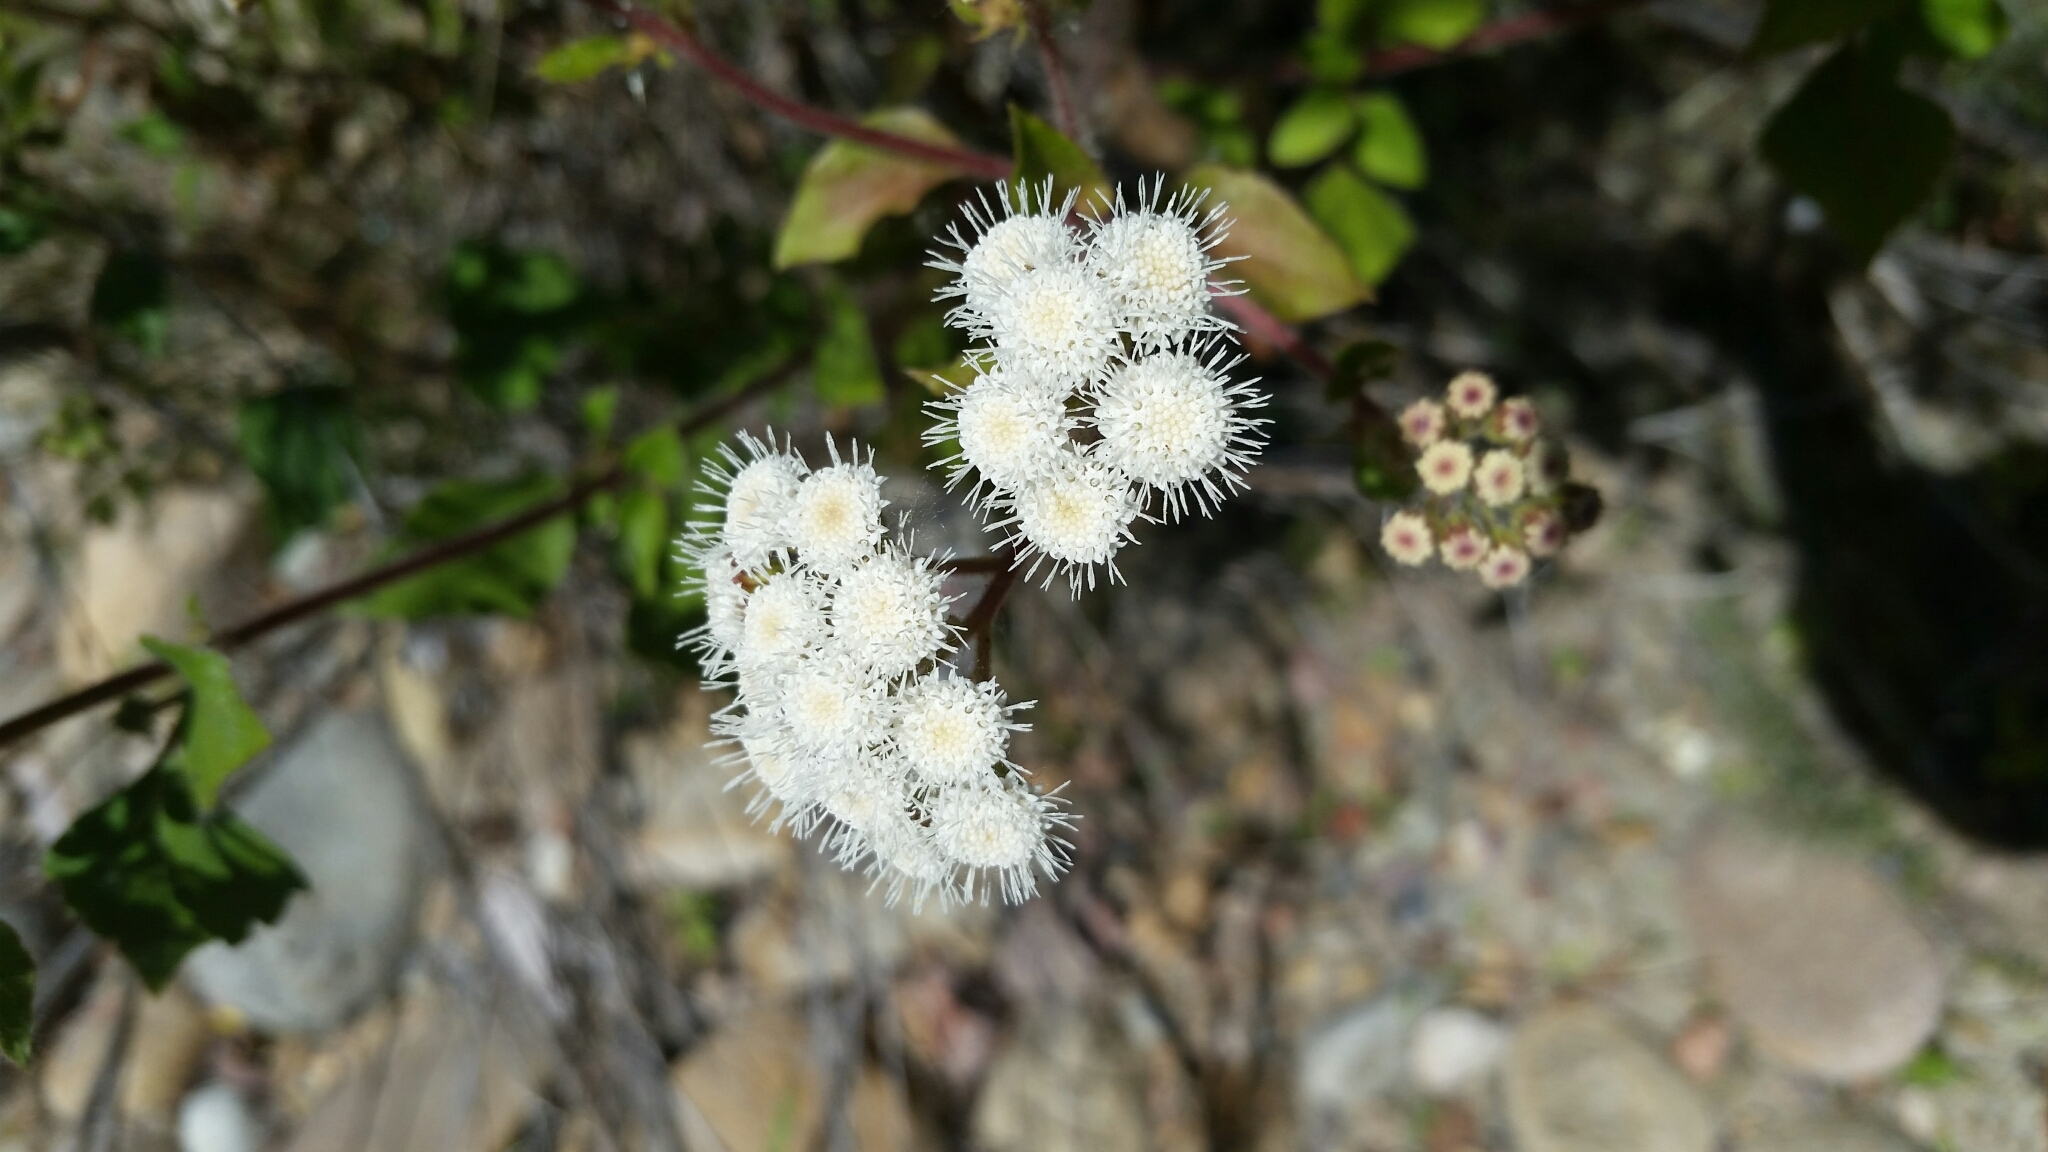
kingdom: Plantae
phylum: Tracheophyta
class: Magnoliopsida
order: Asterales
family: Asteraceae
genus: Ageratina
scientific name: Ageratina adenophora
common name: Sticky snakeroot
